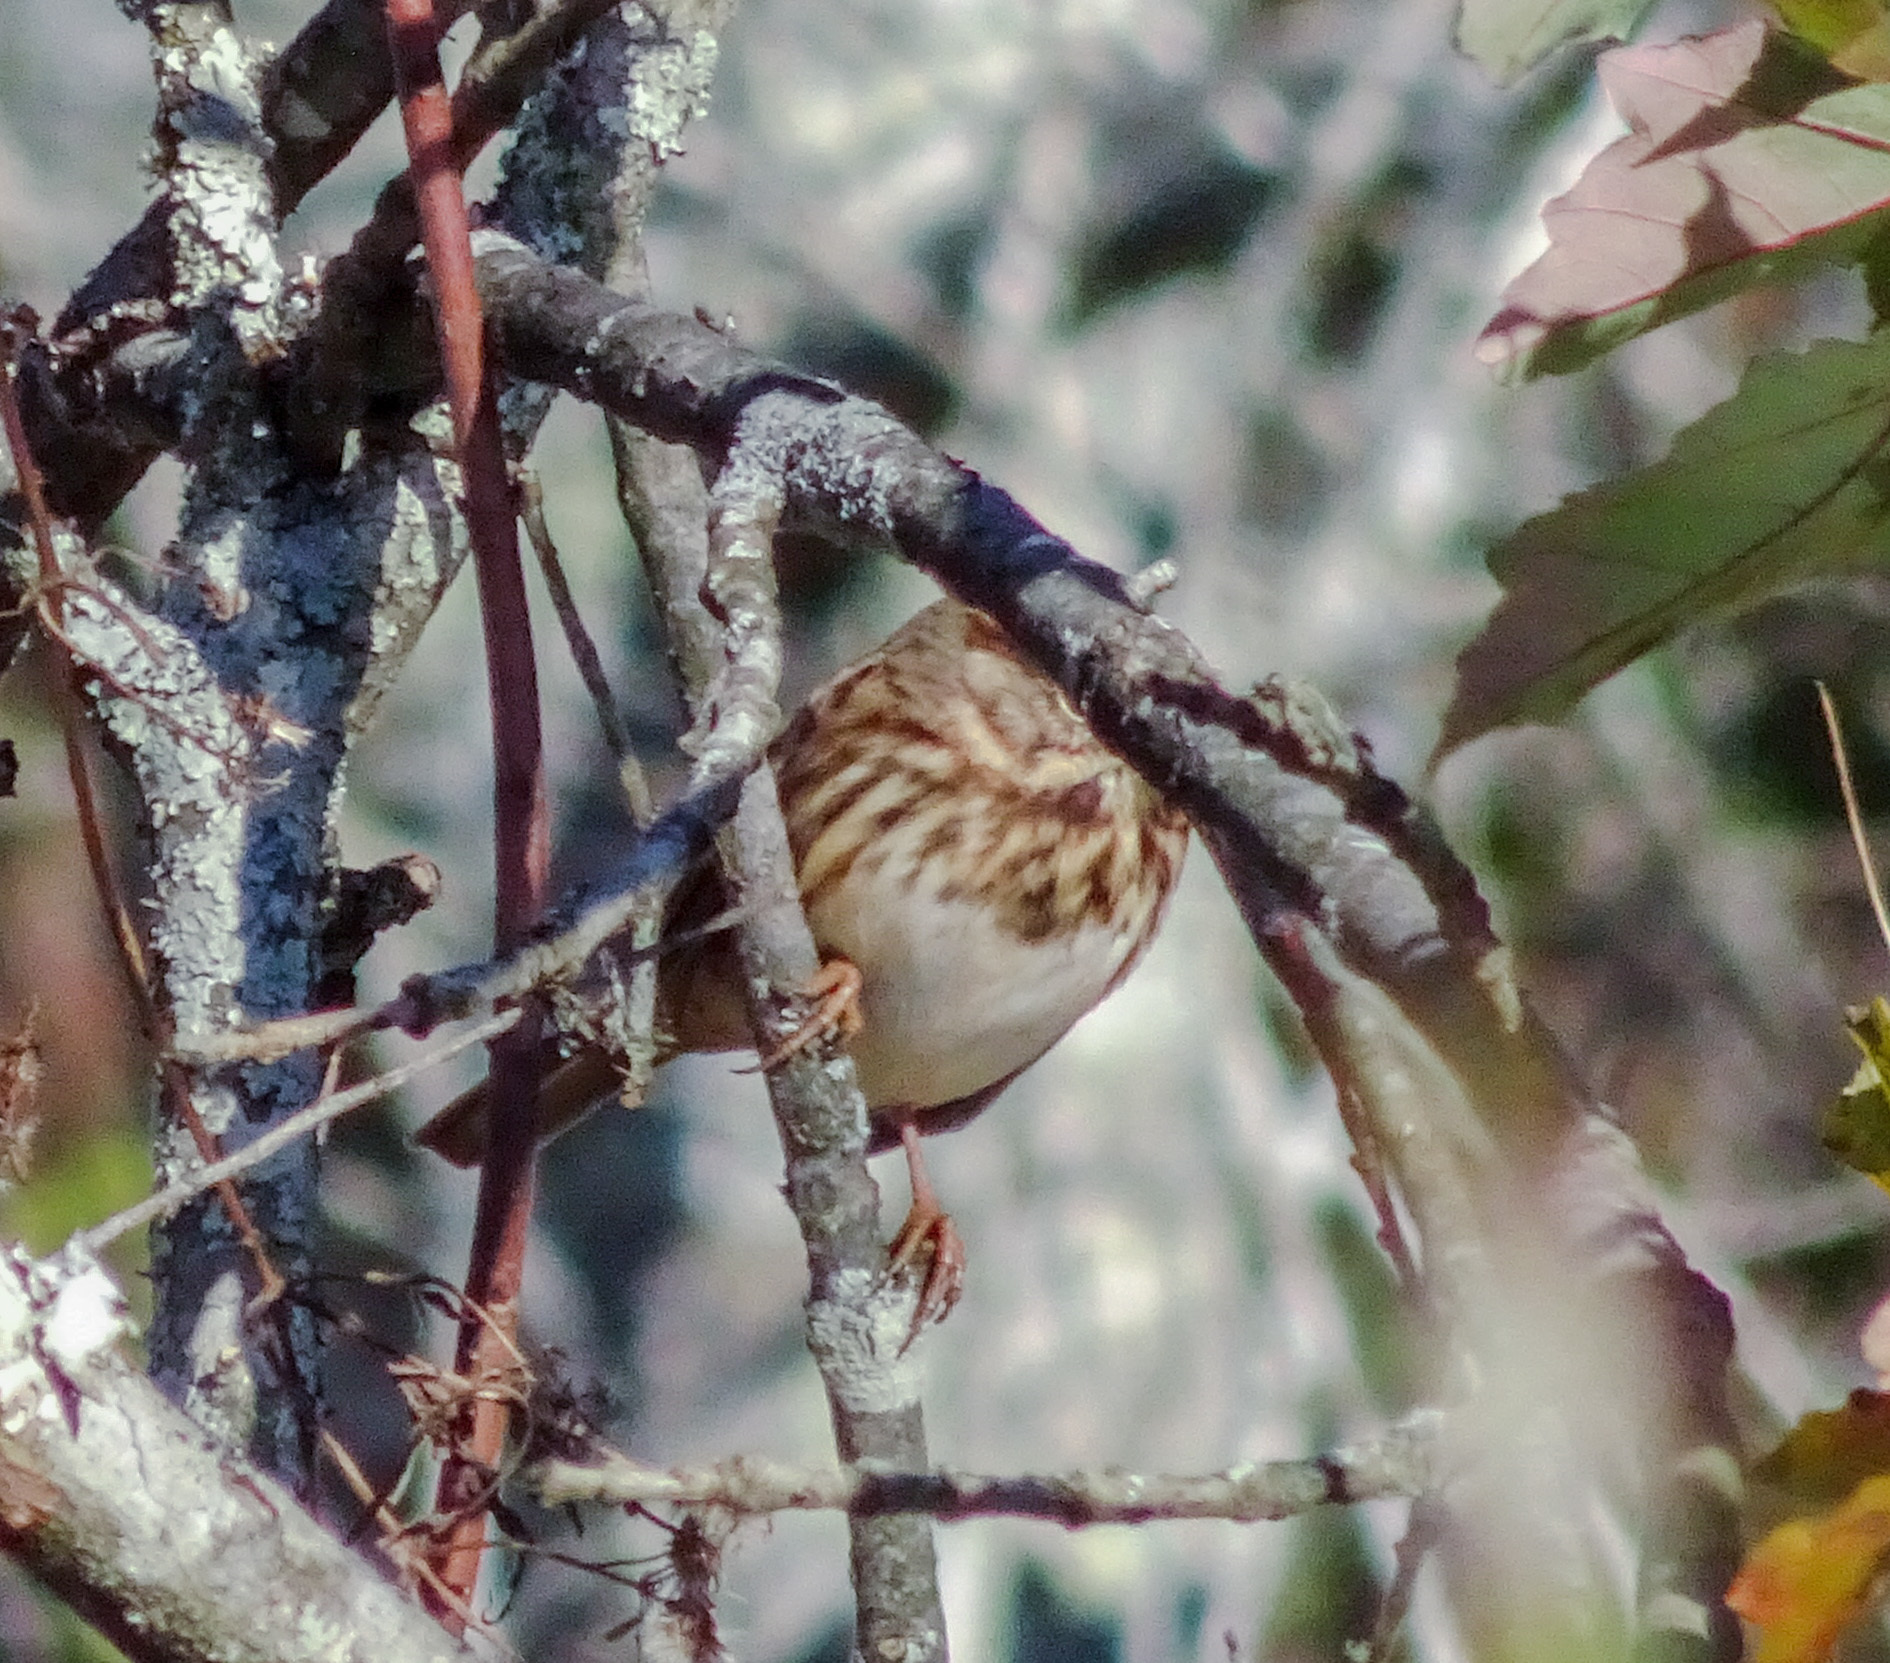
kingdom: Animalia
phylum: Chordata
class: Aves
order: Passeriformes
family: Passerellidae
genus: Melospiza
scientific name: Melospiza melodia
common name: Song sparrow
